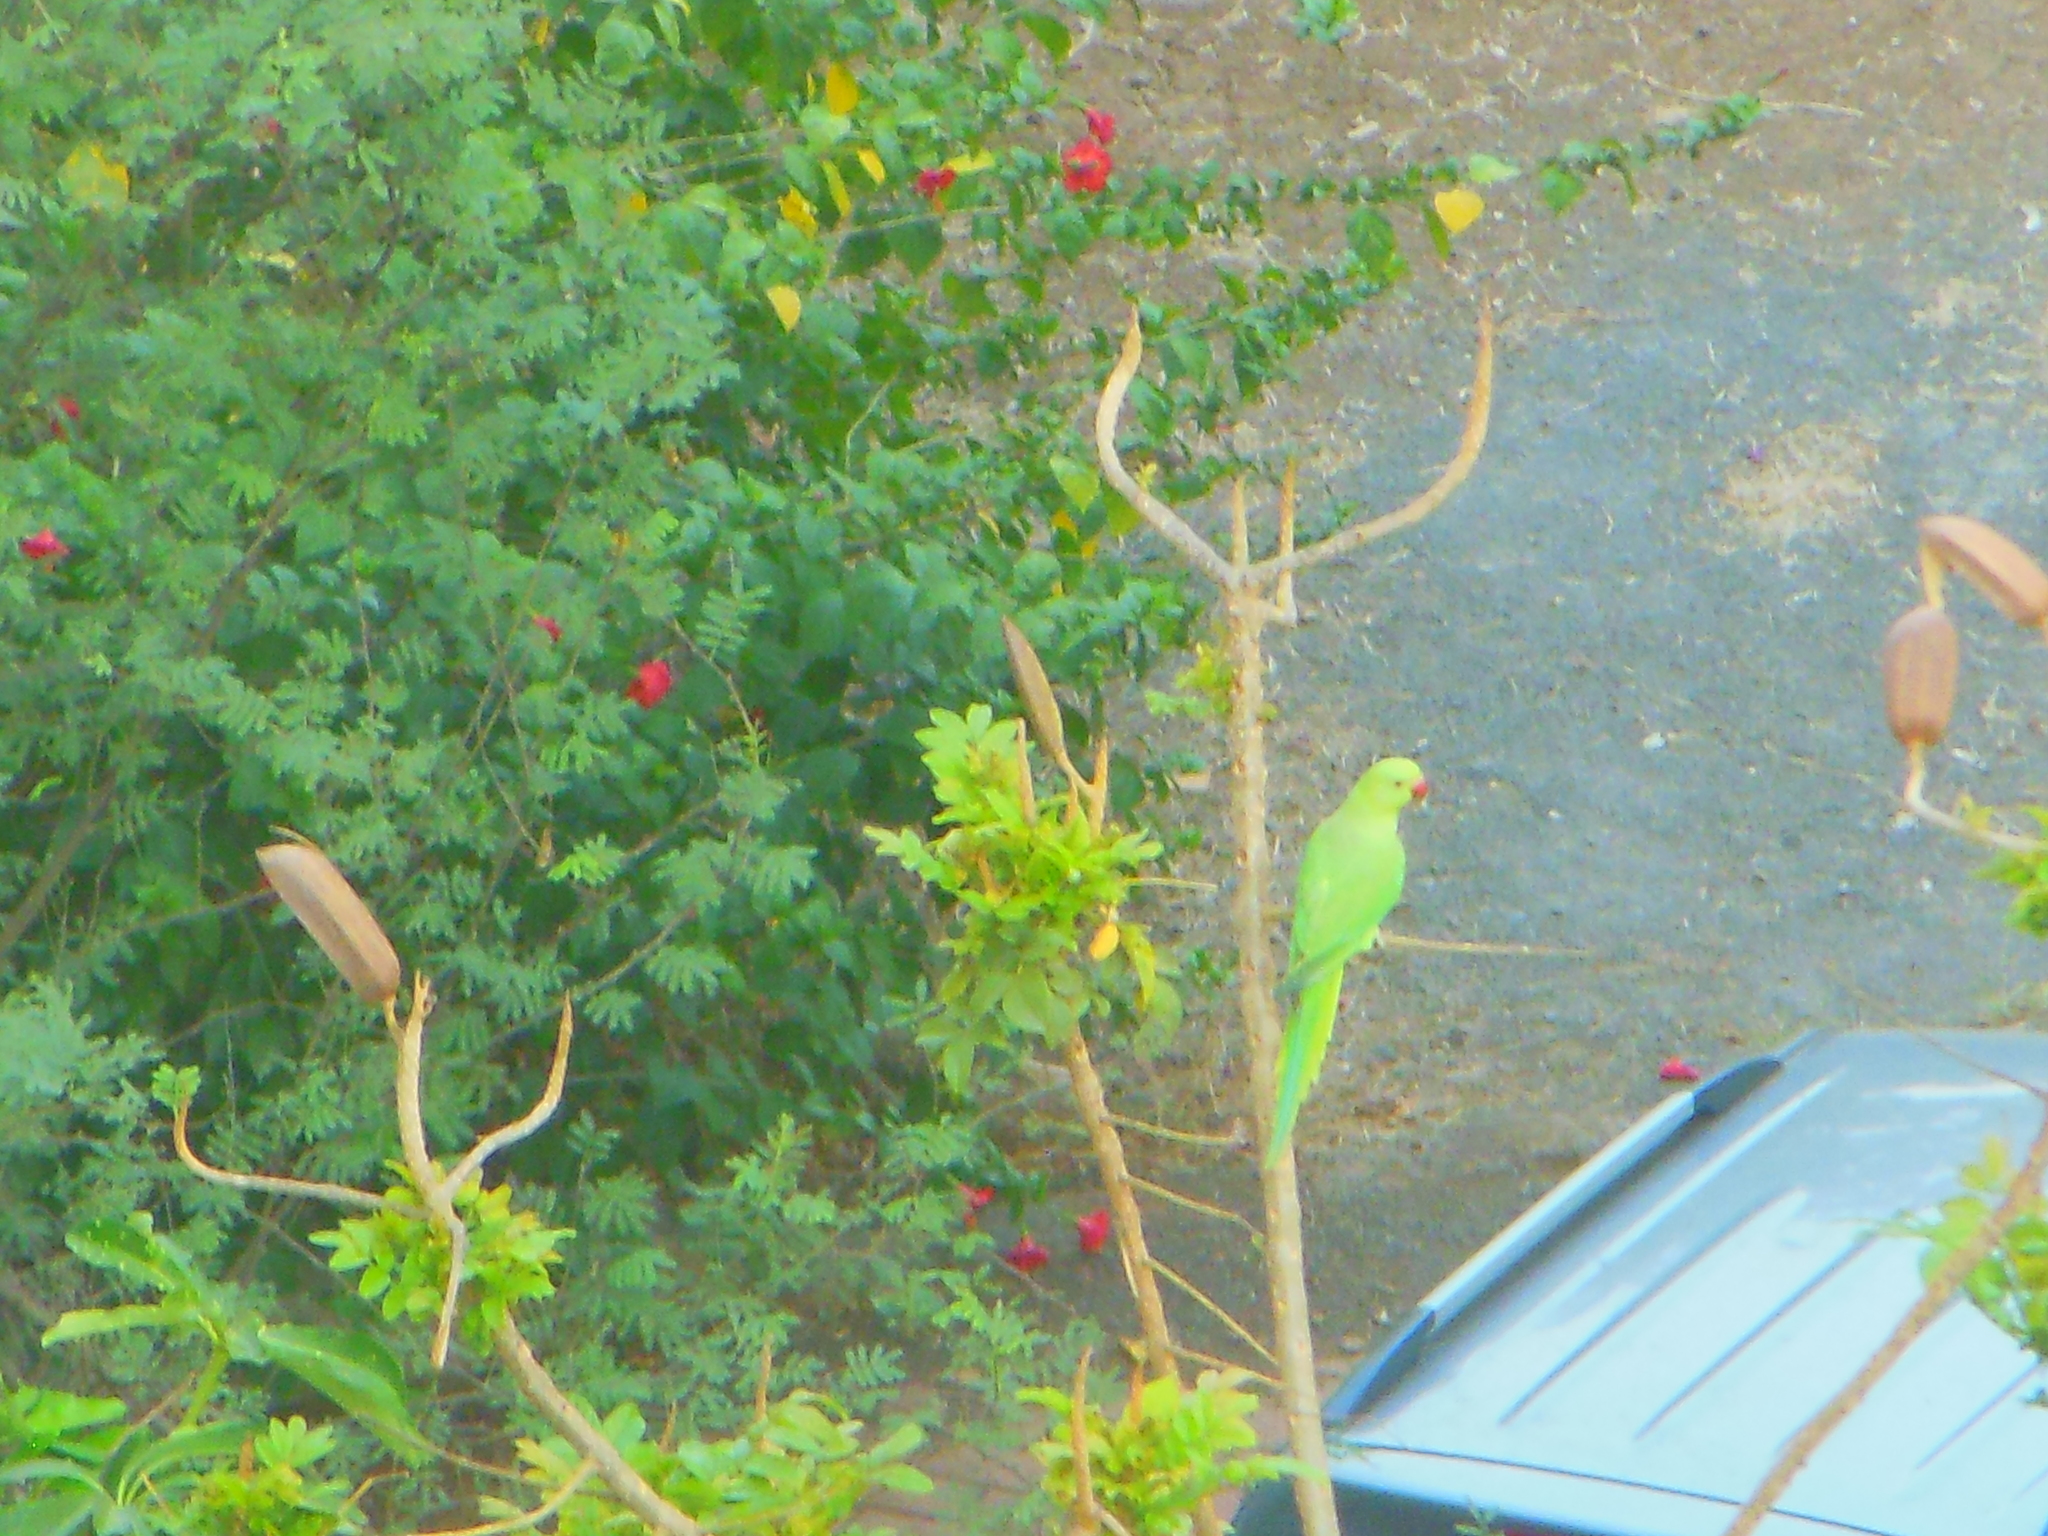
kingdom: Animalia
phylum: Chordata
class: Aves
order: Psittaciformes
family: Psittacidae
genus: Psittacula
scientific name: Psittacula krameri
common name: Rose-ringed parakeet
